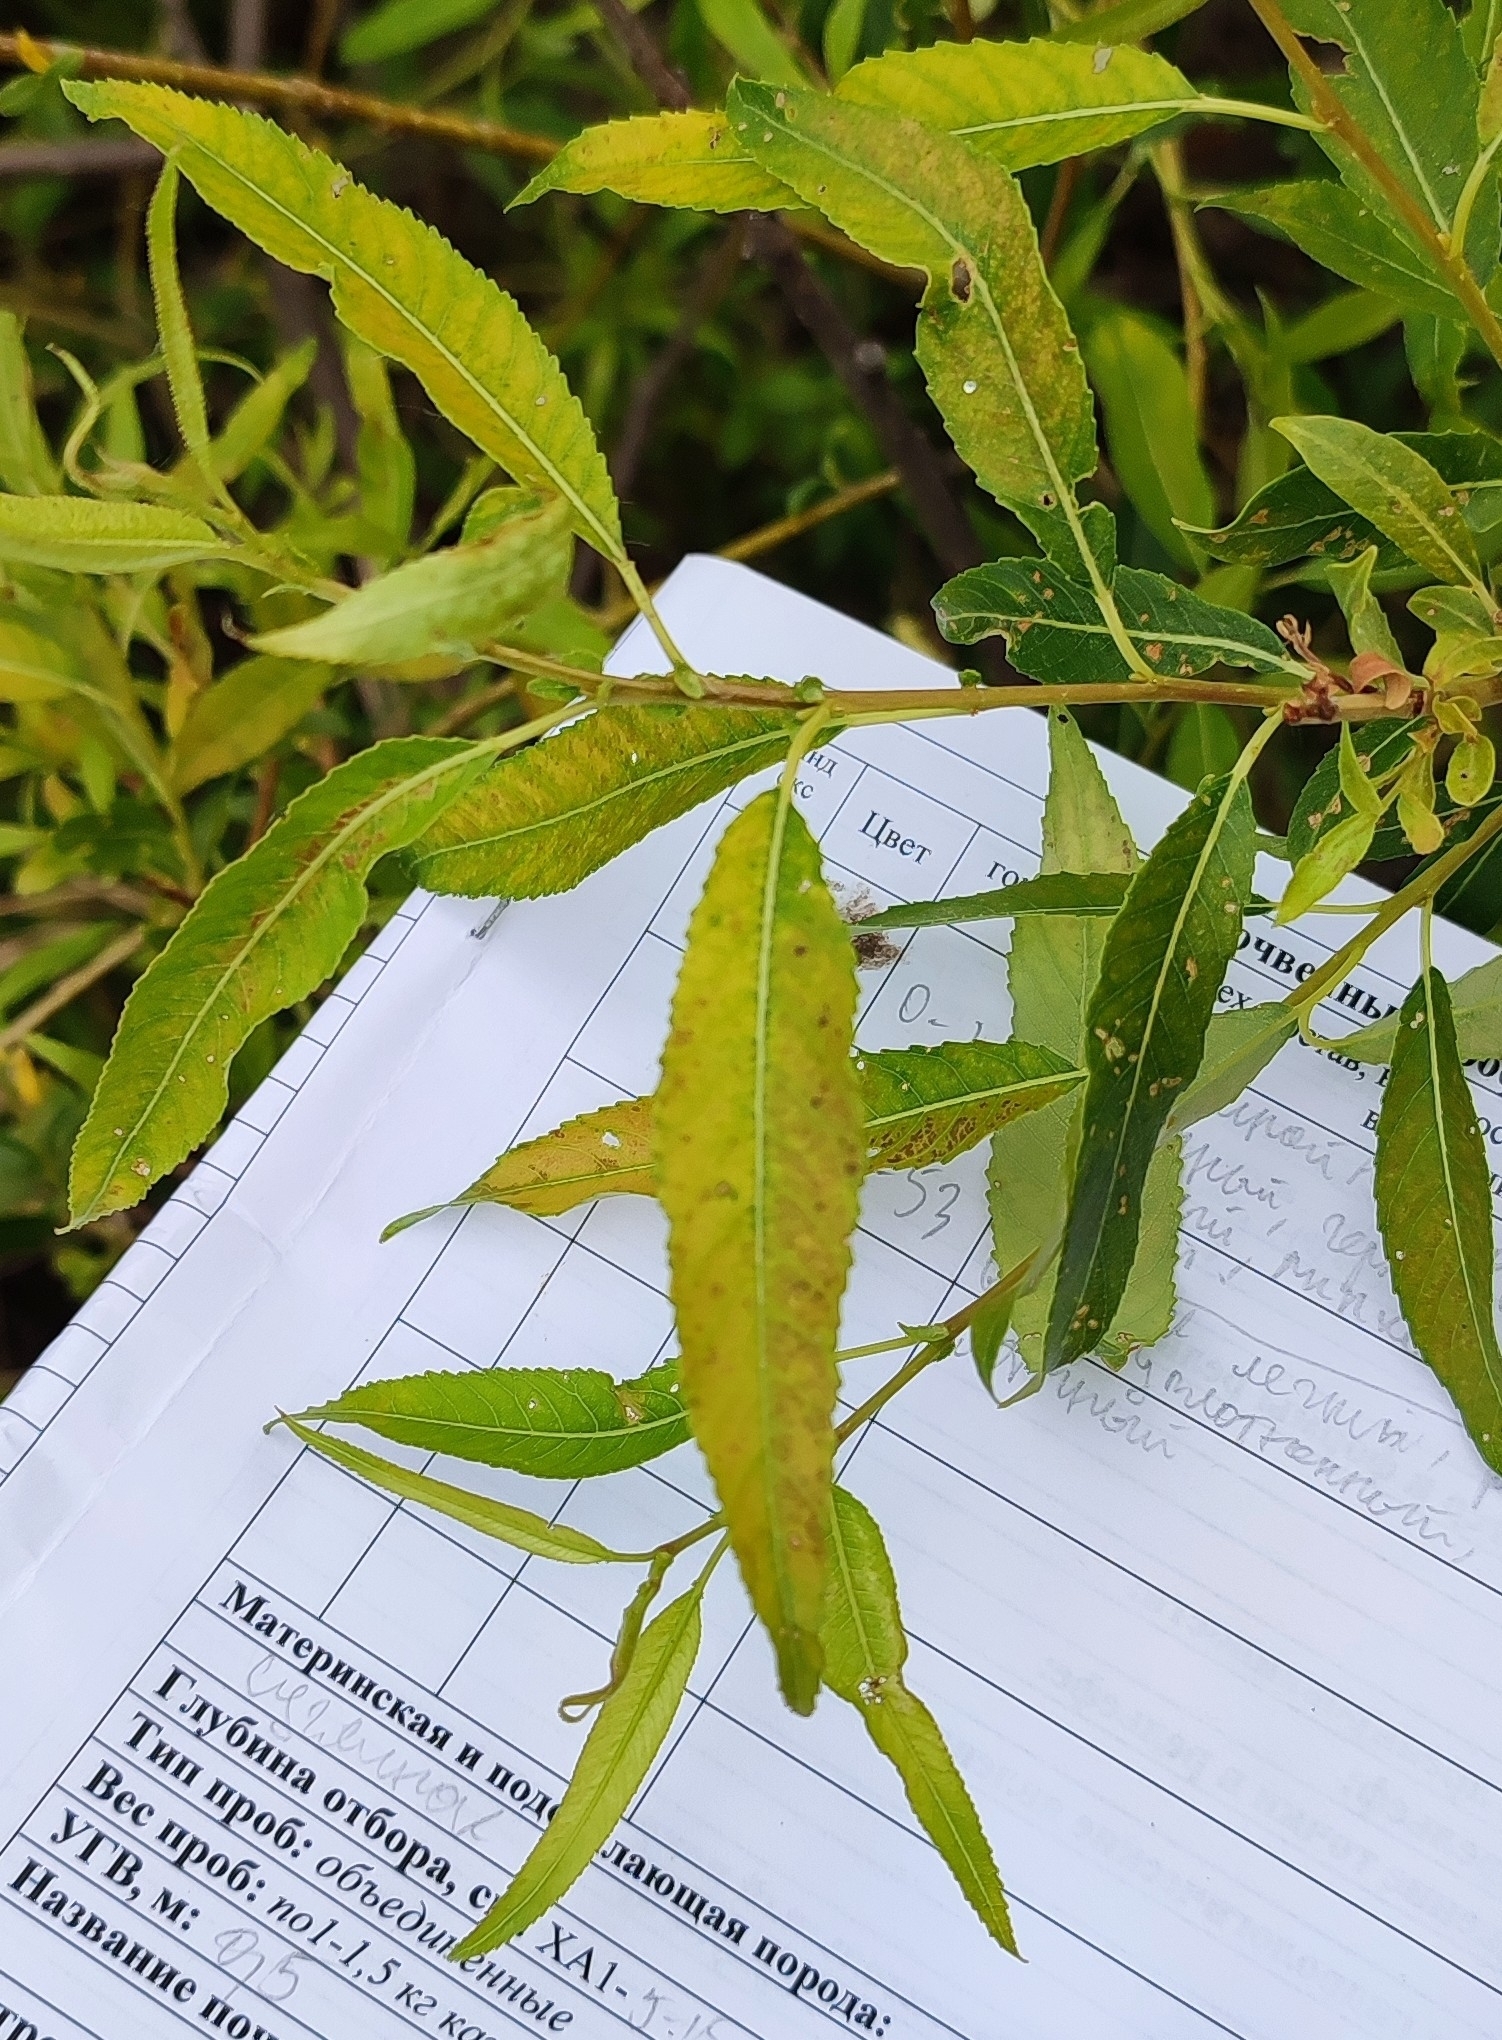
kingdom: Plantae
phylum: Tracheophyta
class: Magnoliopsida
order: Malpighiales
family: Salicaceae
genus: Salix
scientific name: Salix triandra
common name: Almond willow
